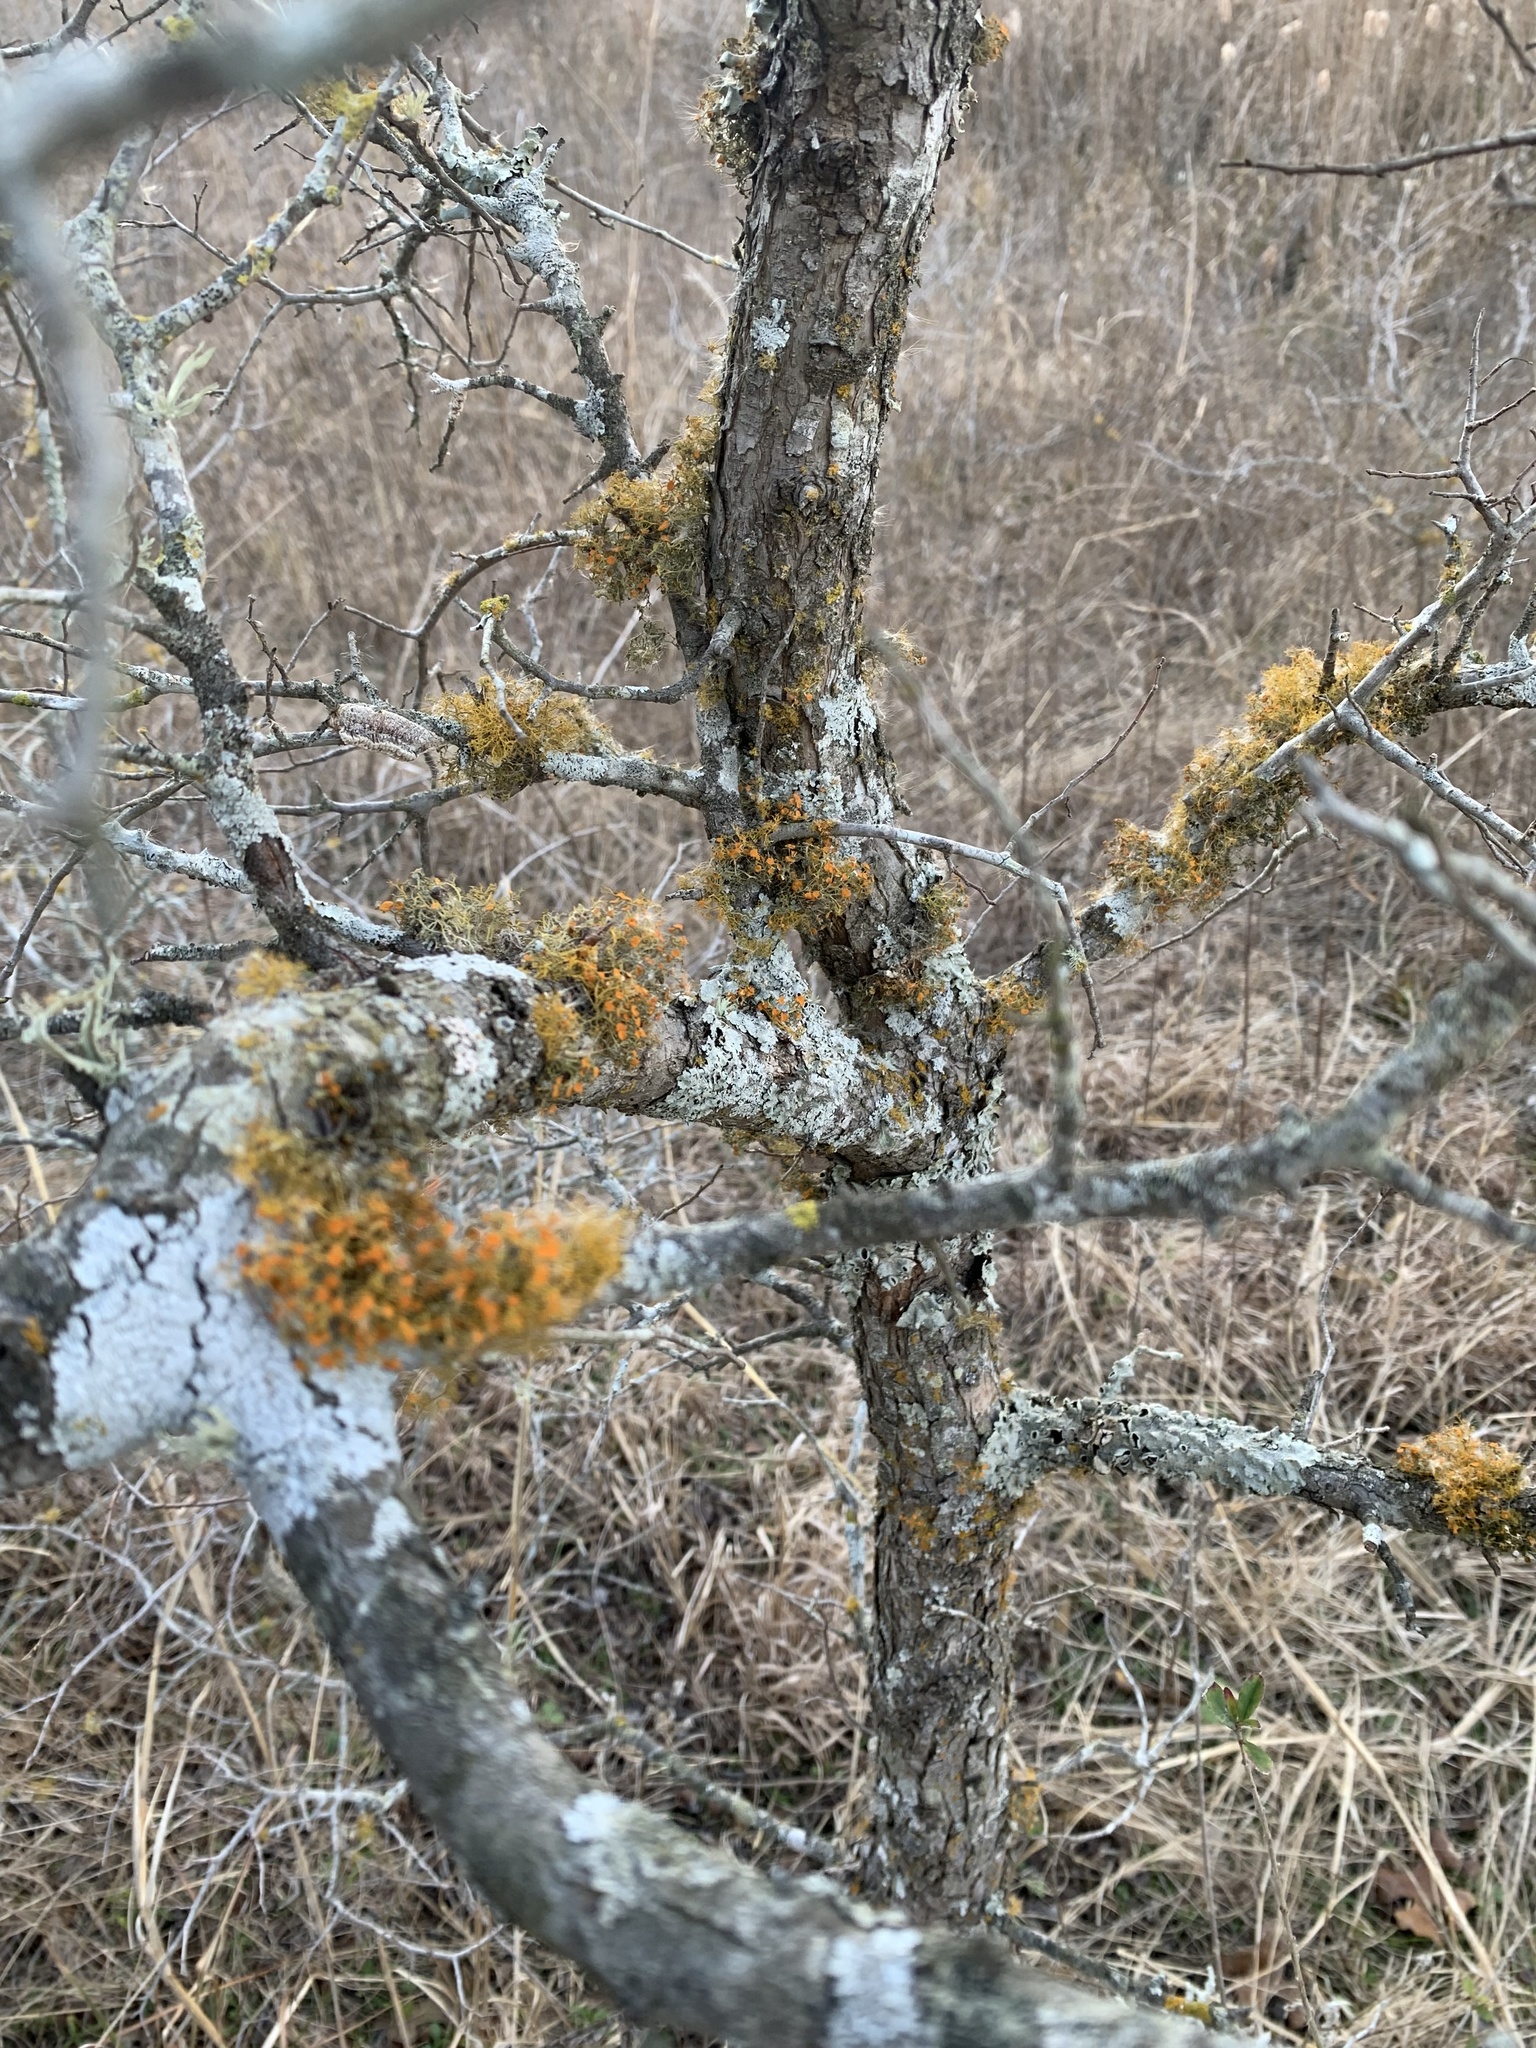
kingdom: Fungi
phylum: Ascomycota
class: Lecanoromycetes
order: Teloschistales
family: Teloschistaceae
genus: Teloschistes
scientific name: Teloschistes exilis
